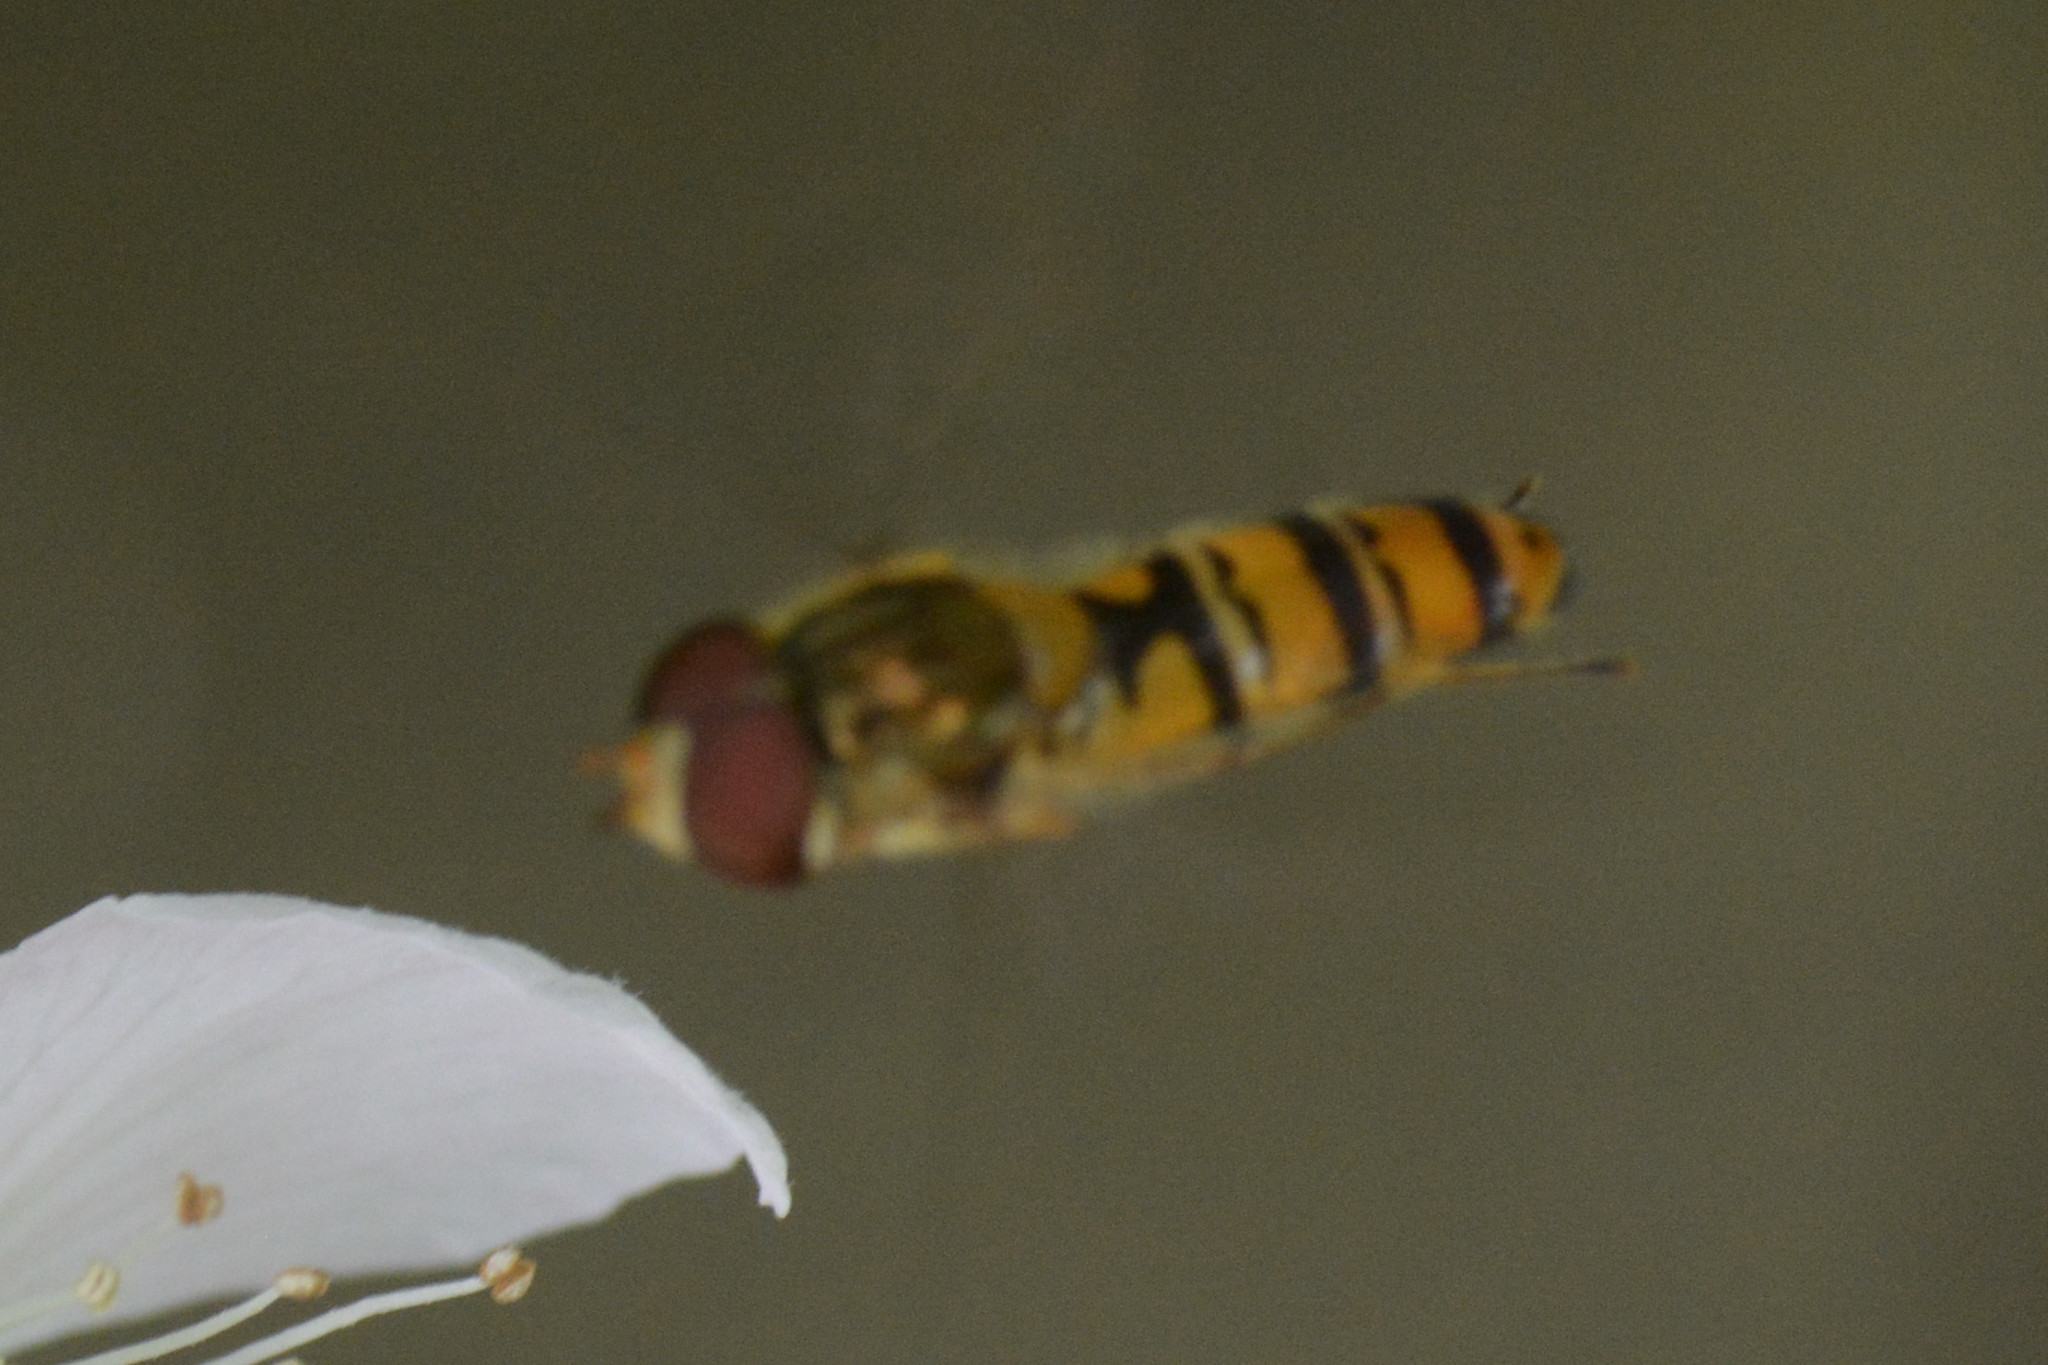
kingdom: Animalia
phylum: Arthropoda
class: Insecta
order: Diptera
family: Syrphidae
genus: Episyrphus
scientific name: Episyrphus balteatus
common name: Marmalade hoverfly
